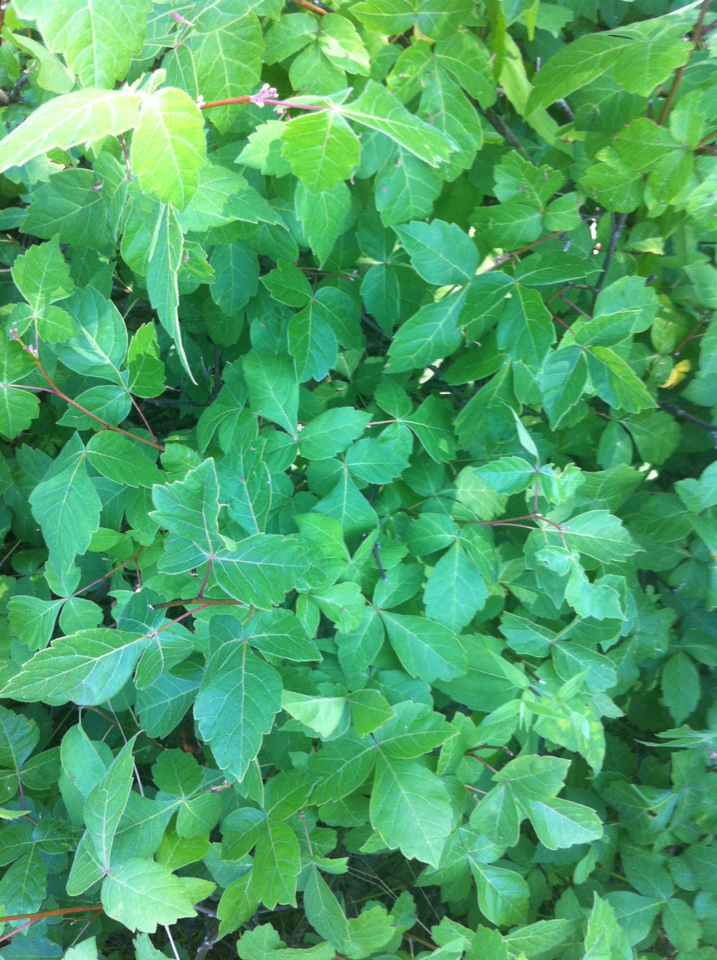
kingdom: Plantae
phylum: Tracheophyta
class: Magnoliopsida
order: Sapindales
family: Anacardiaceae
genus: Rhus
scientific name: Rhus aromatica
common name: Aromatic sumac
